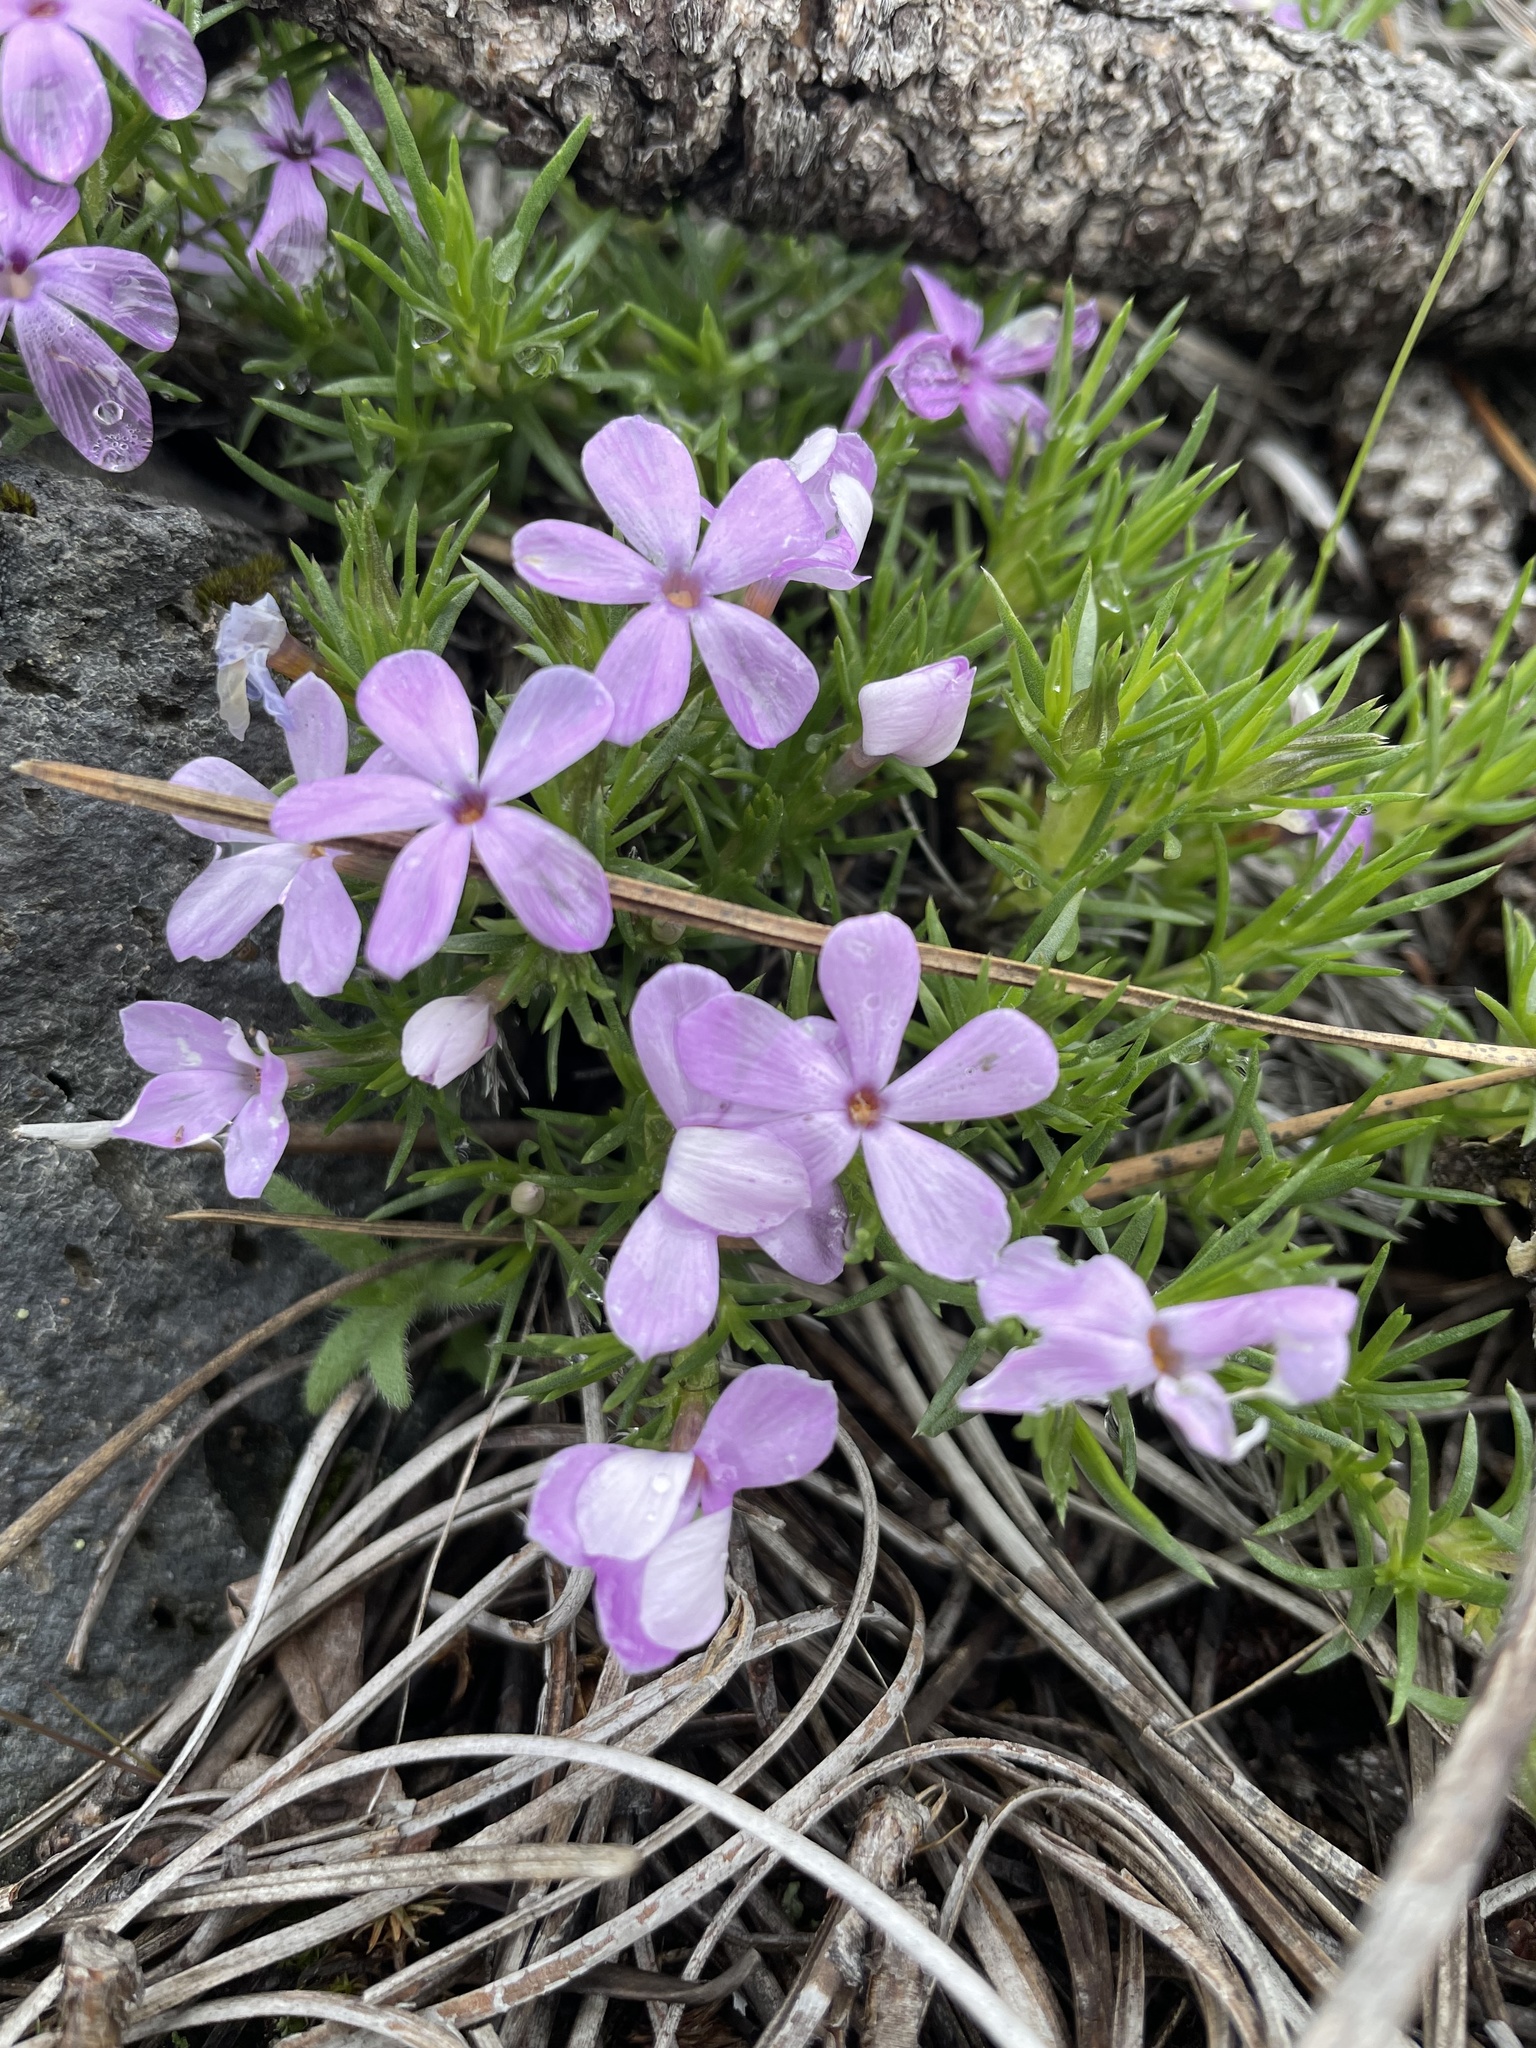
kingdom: Plantae
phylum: Tracheophyta
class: Magnoliopsida
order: Ericales
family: Polemoniaceae
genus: Phlox
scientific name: Phlox hoodii
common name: Moss phlox
